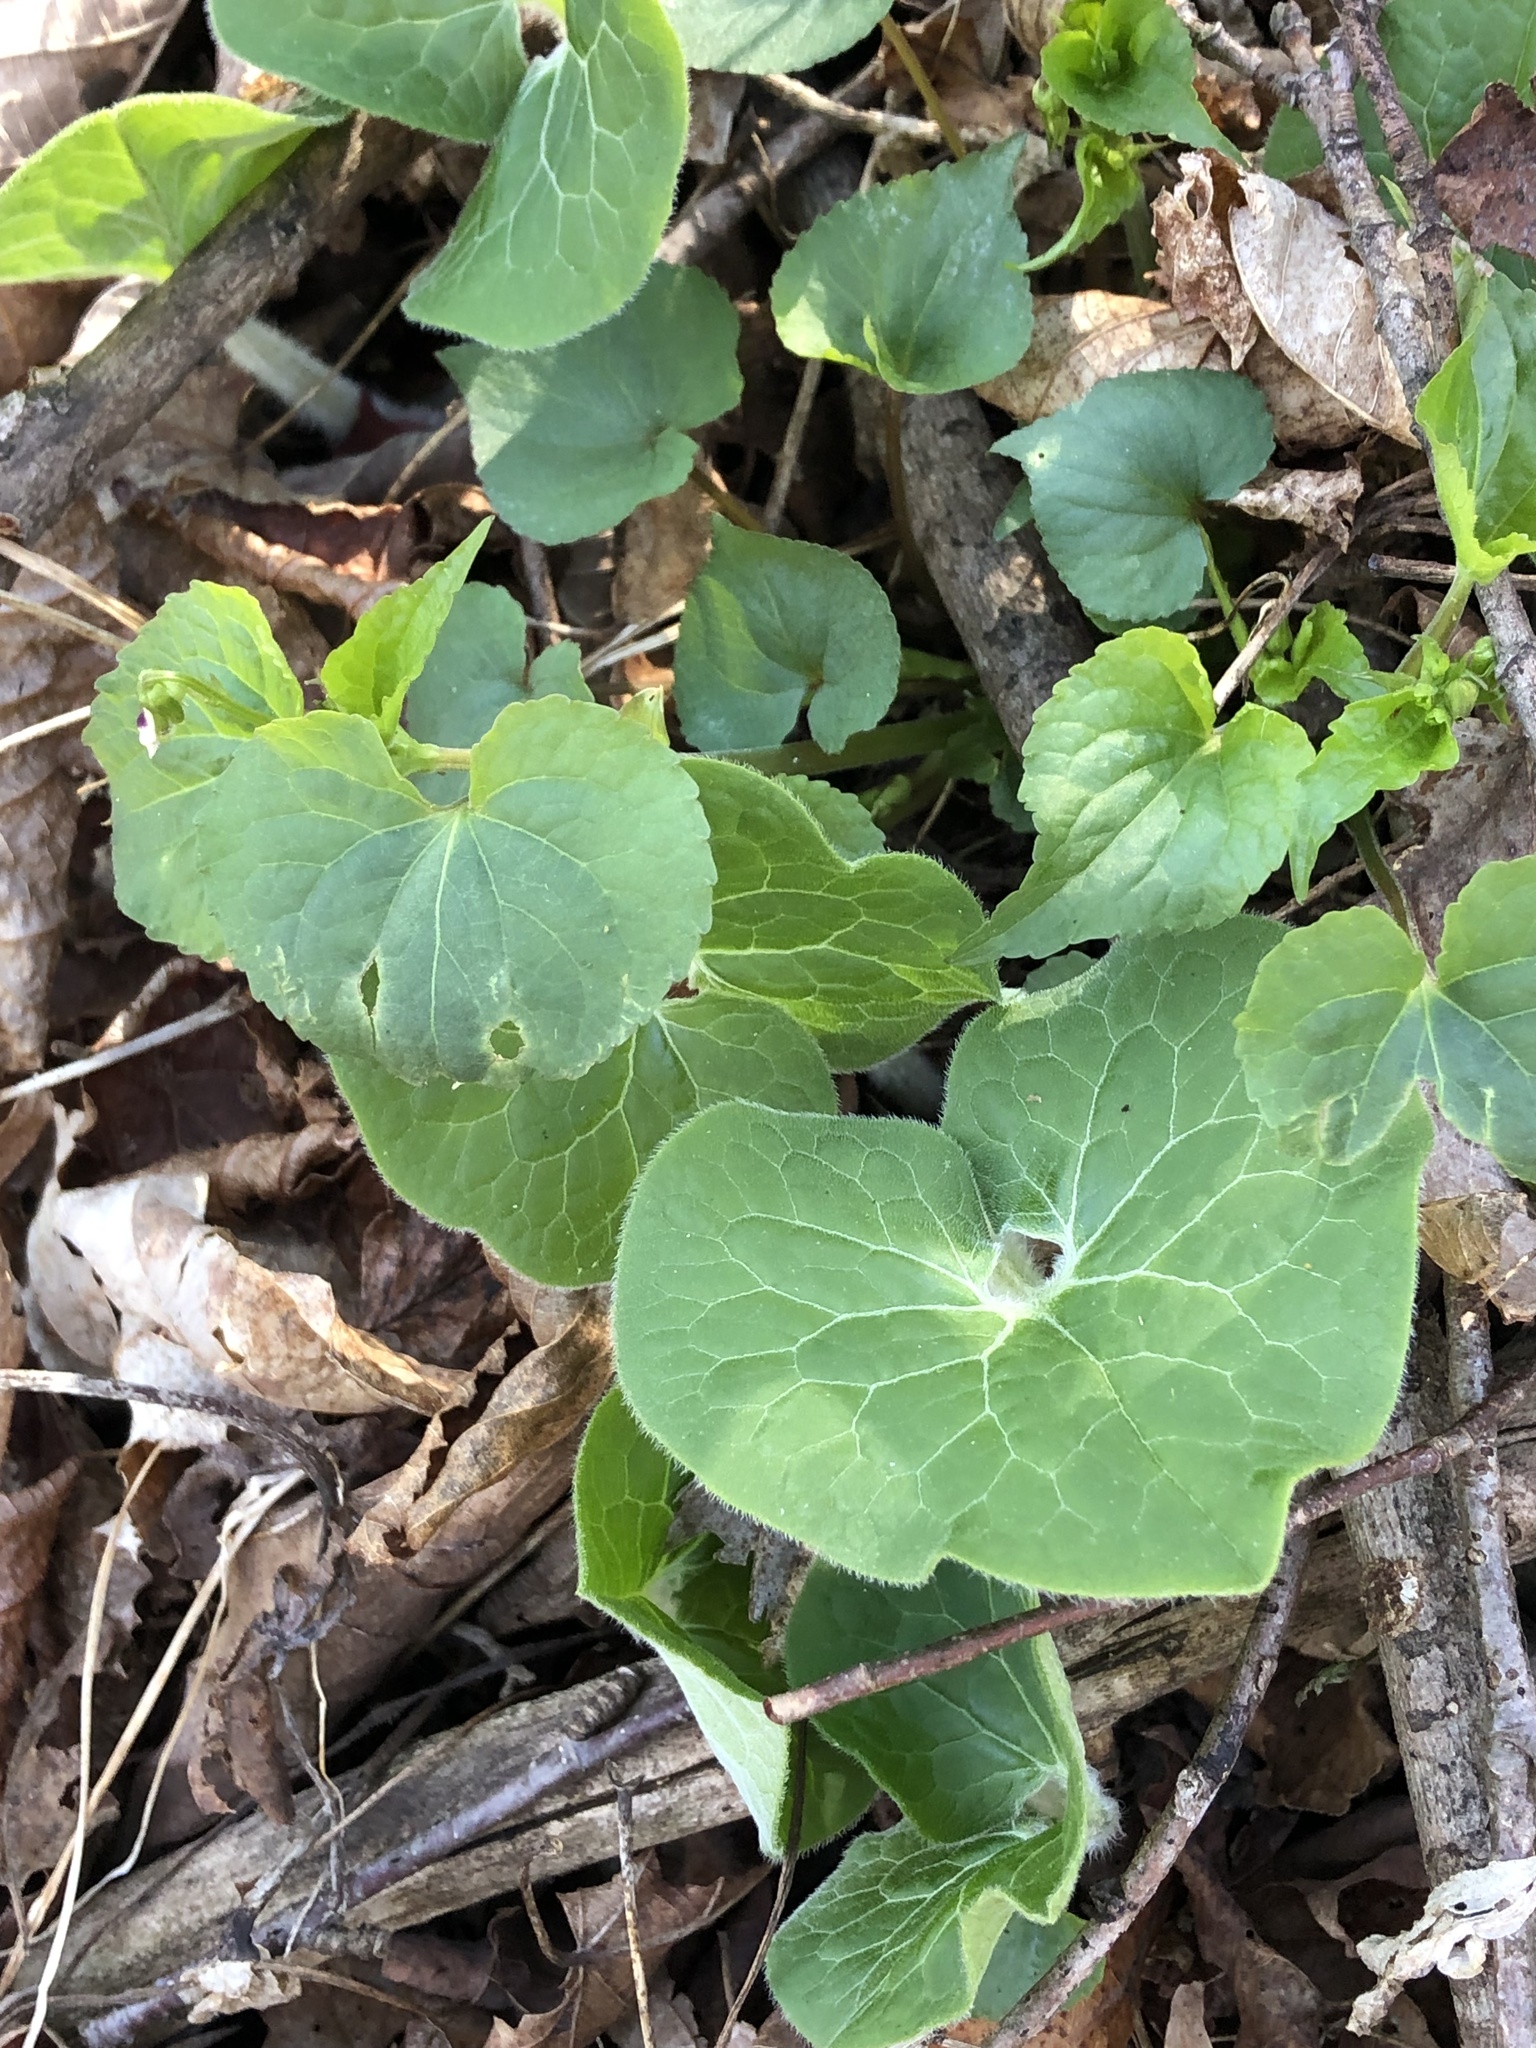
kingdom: Plantae
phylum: Tracheophyta
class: Magnoliopsida
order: Piperales
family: Aristolochiaceae
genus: Asarum
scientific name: Asarum canadense
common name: Wild ginger
